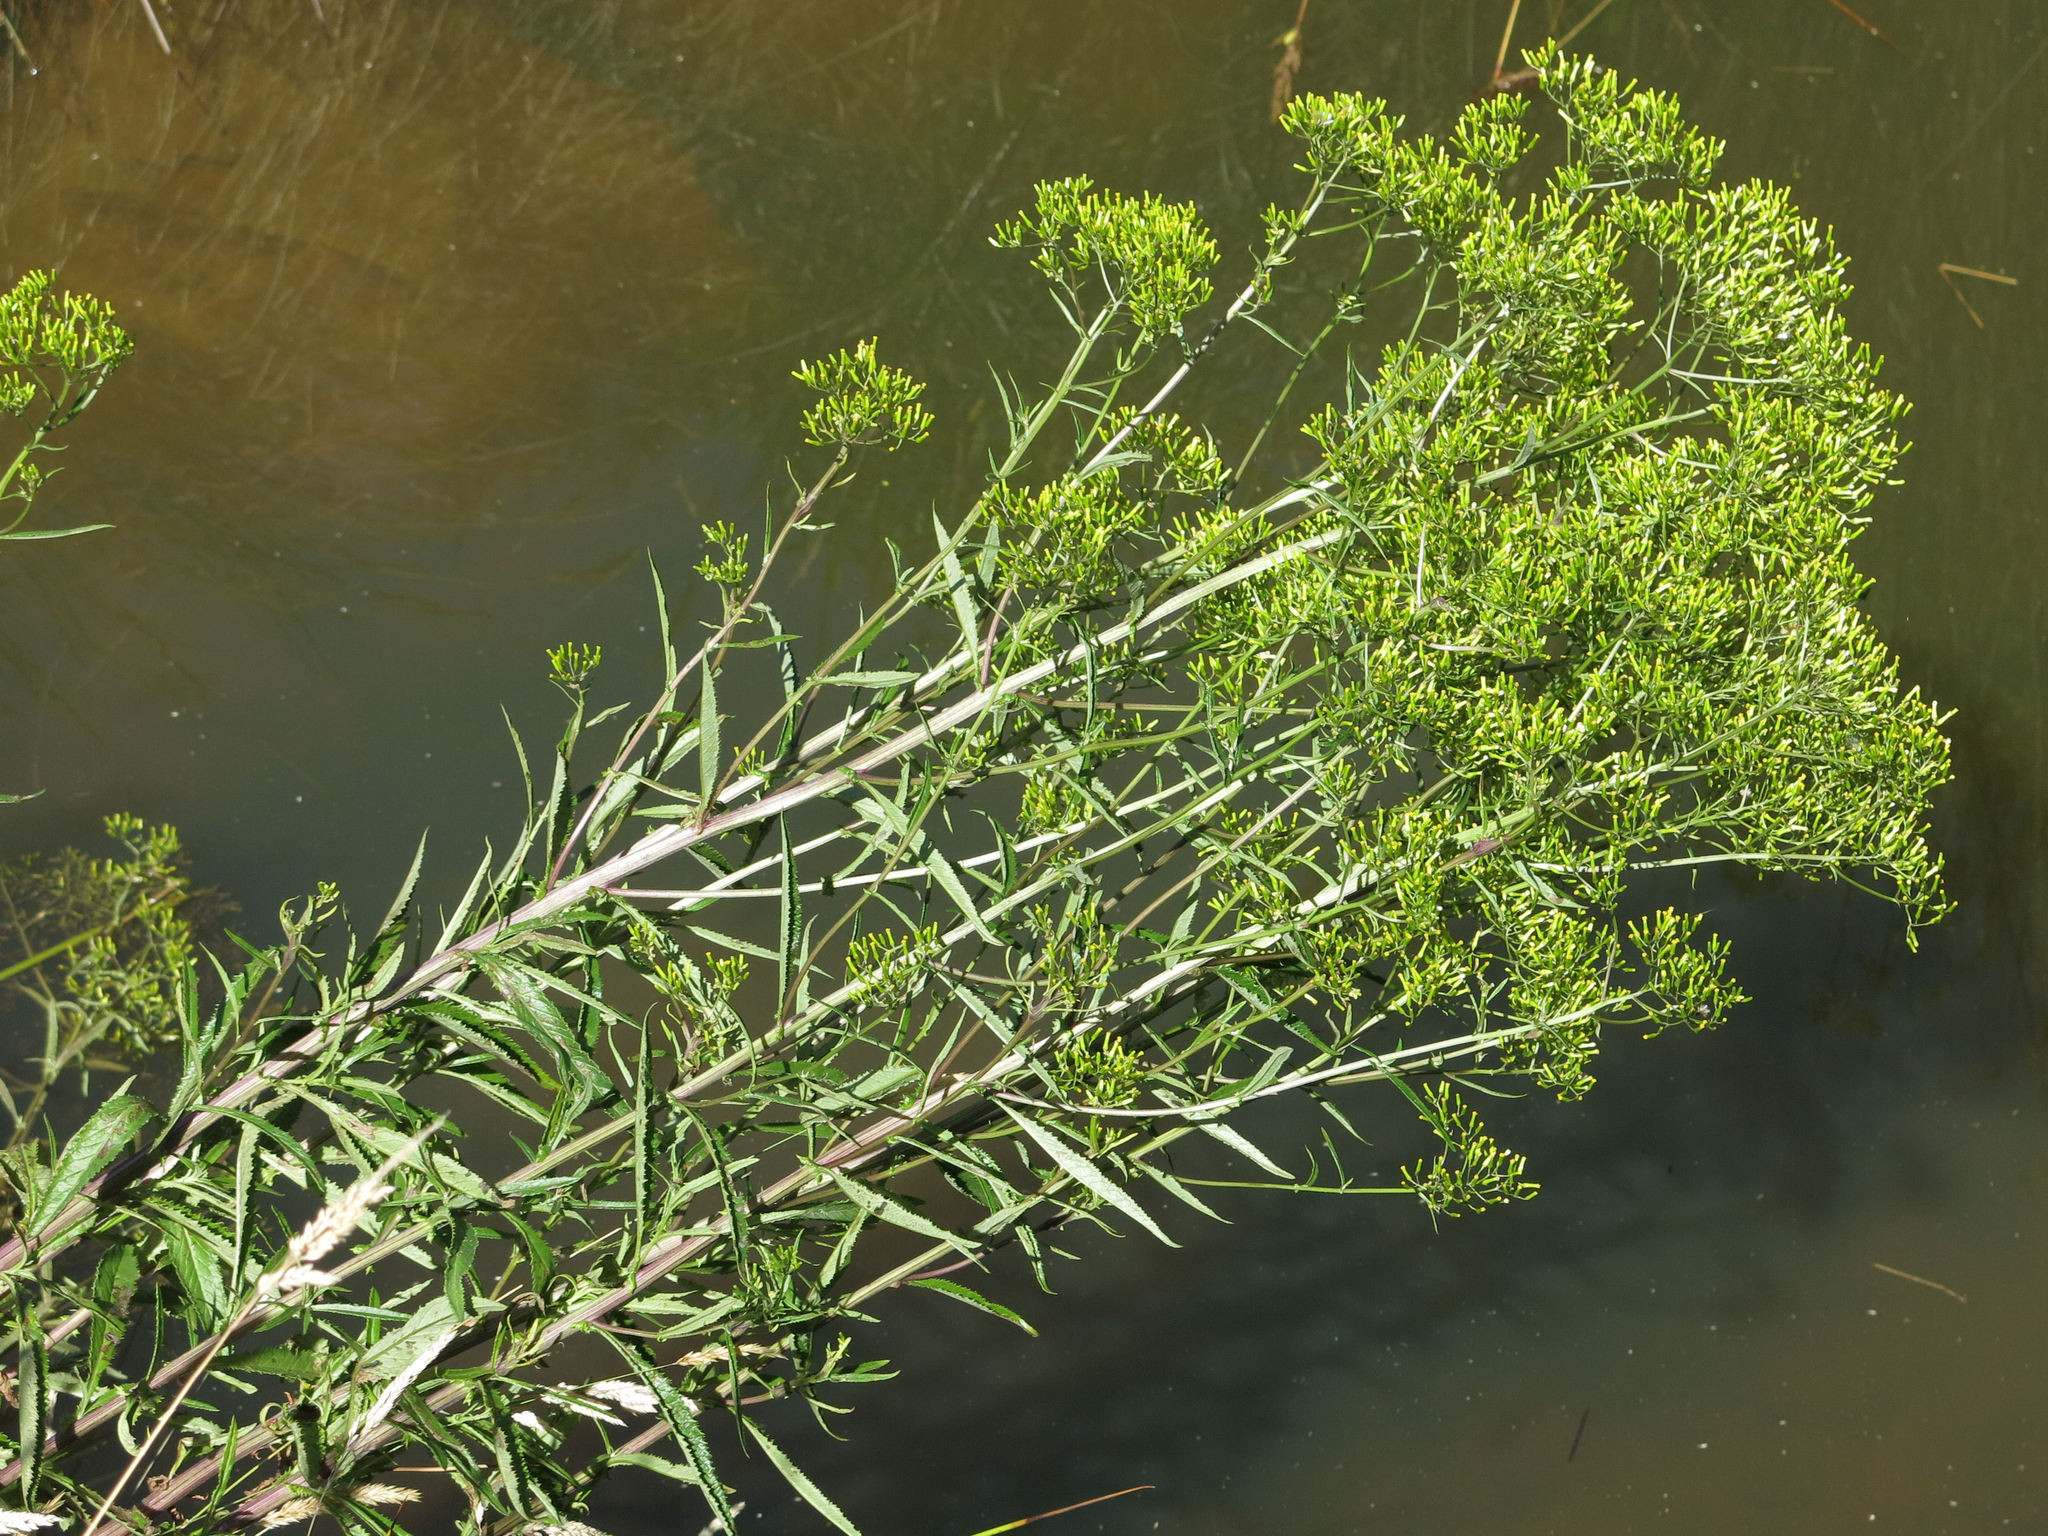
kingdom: Plantae
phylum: Tracheophyta
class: Magnoliopsida
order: Asterales
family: Asteraceae
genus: Senecio
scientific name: Senecio minimus
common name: Toothed fireweed
